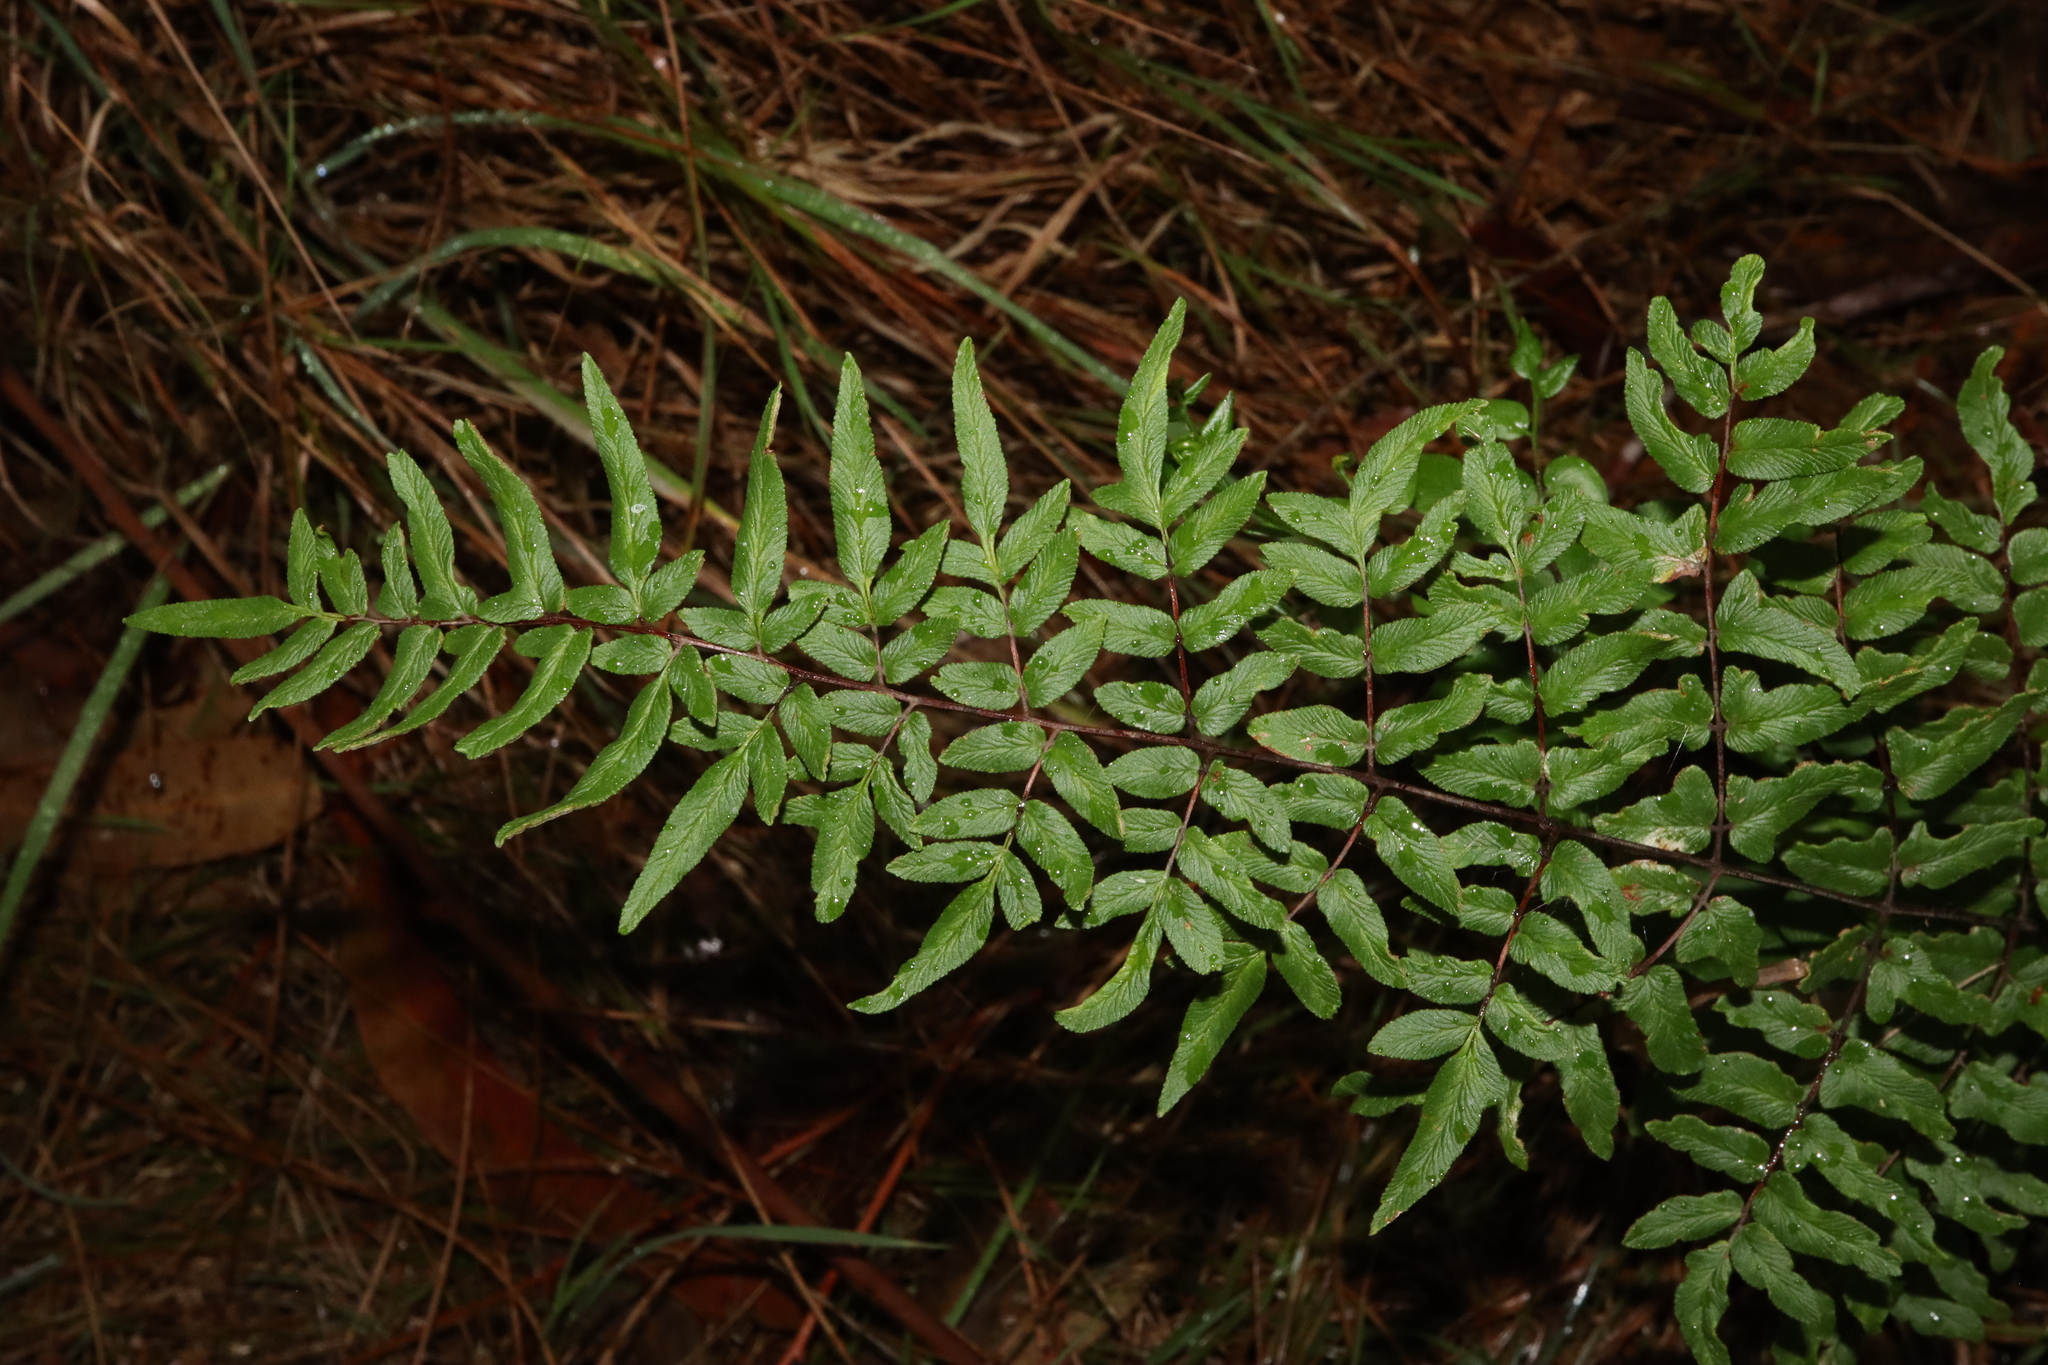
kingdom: Plantae
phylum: Tracheophyta
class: Polypodiopsida
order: Polypodiales
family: Pteridaceae
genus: Cheilanthes
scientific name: Cheilanthes viridis
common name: Green cliffbrake
